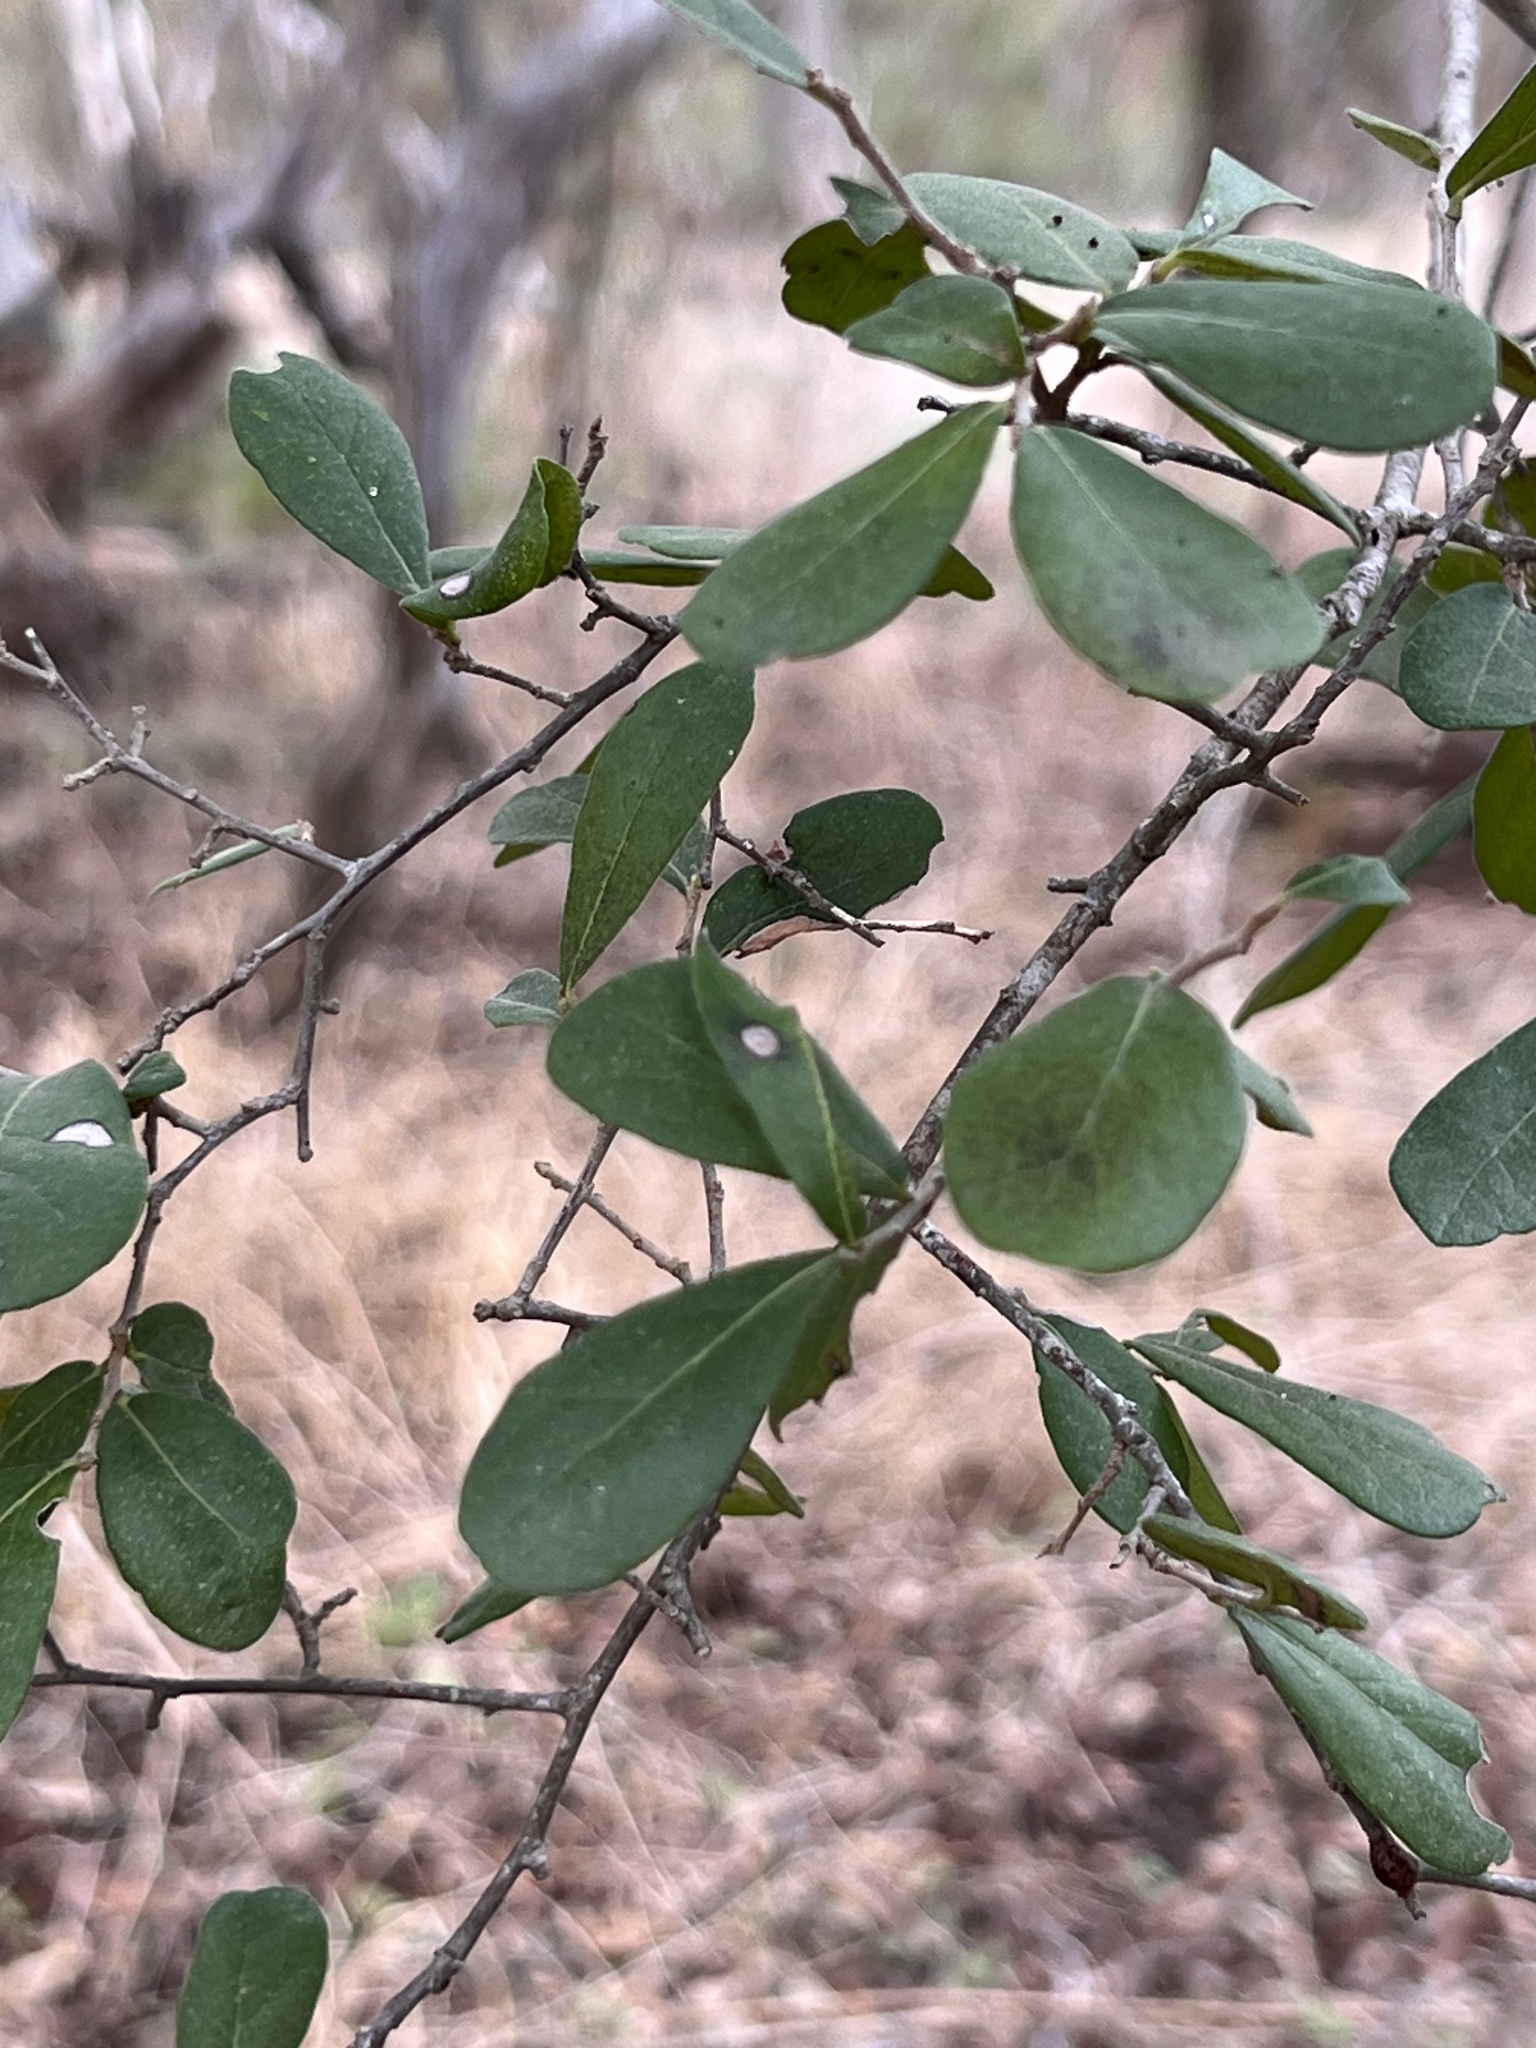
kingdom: Plantae
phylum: Tracheophyta
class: Magnoliopsida
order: Ericales
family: Ebenaceae
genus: Diospyros
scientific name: Diospyros texana
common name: Texas persimmon
